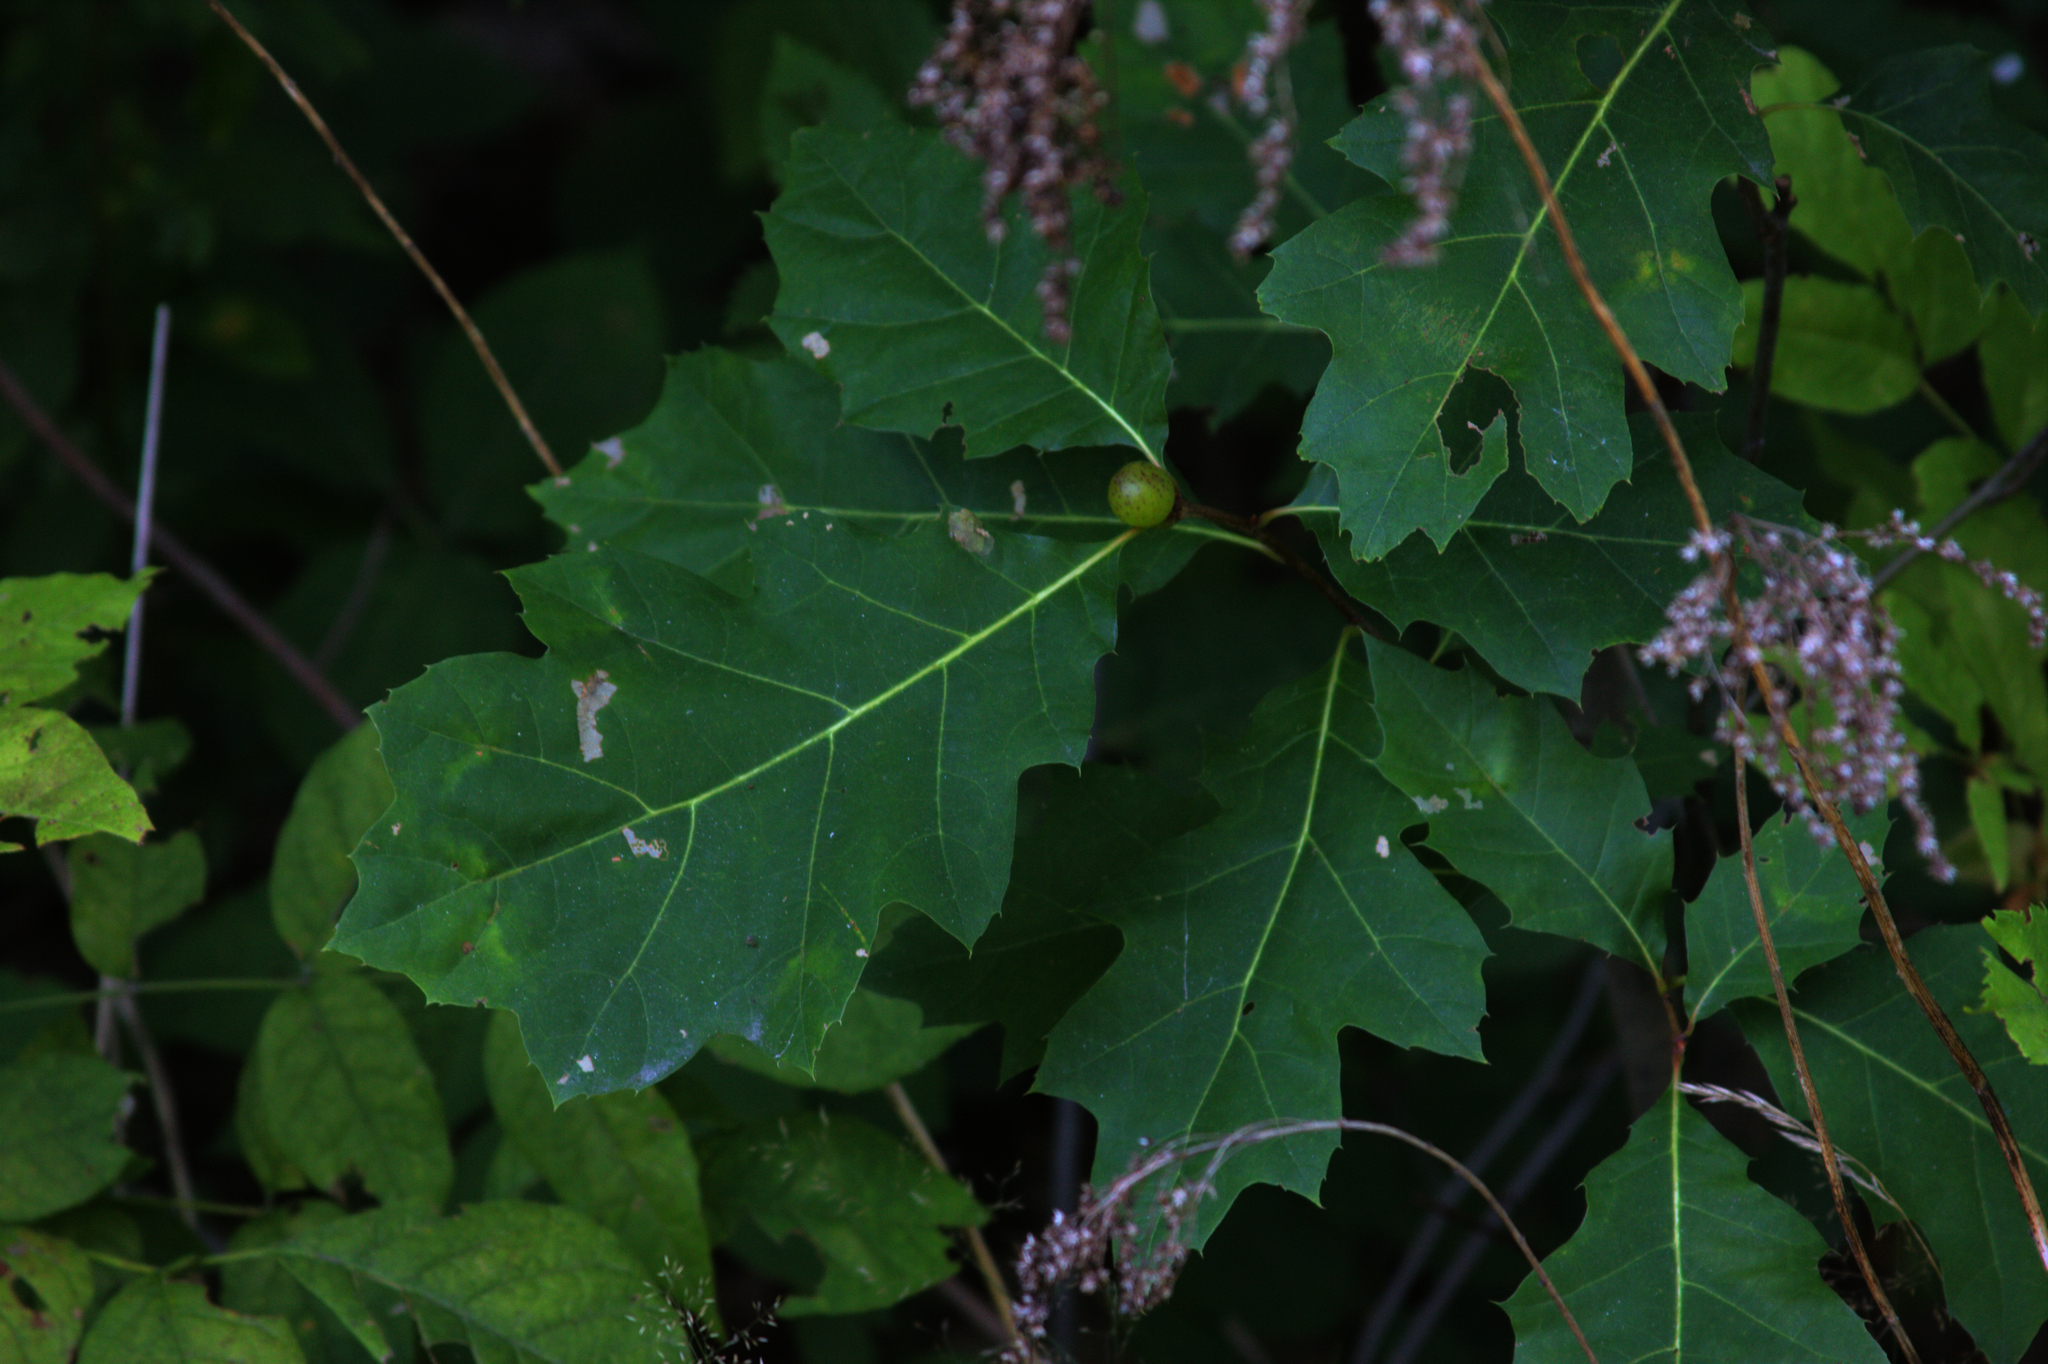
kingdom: Plantae
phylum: Tracheophyta
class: Magnoliopsida
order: Fagales
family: Fagaceae
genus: Quercus
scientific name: Quercus rubra
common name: Red oak
